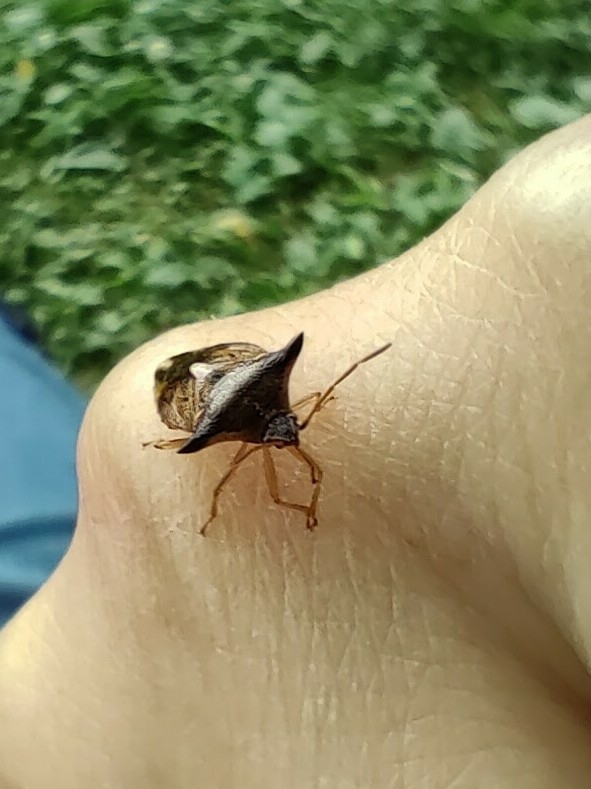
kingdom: Animalia
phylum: Arthropoda
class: Insecta
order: Hemiptera
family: Acanthosomatidae
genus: Elasmucha
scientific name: Elasmucha ferrugata
